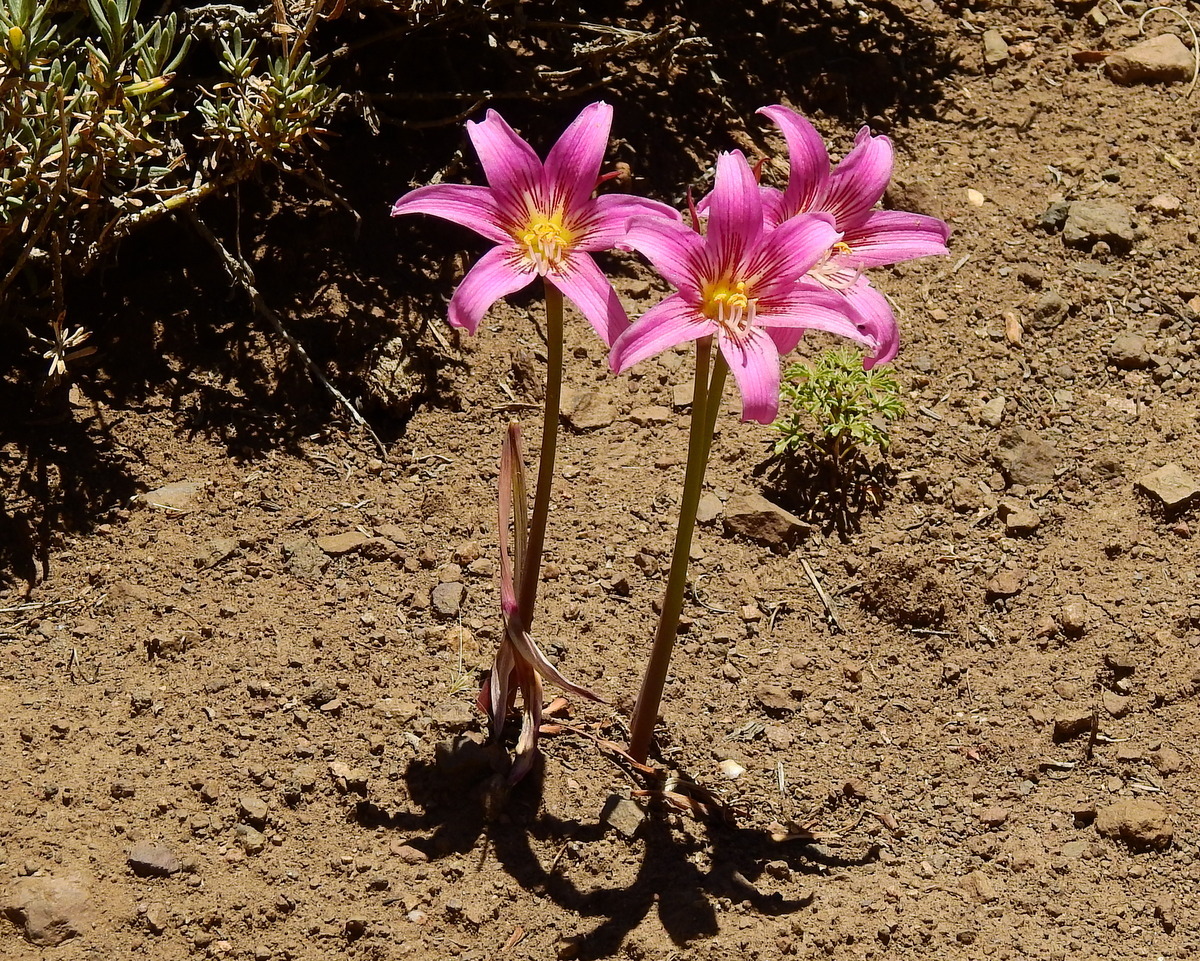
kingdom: Plantae
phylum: Tracheophyta
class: Liliopsida
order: Asparagales
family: Amaryllidaceae
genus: Rhodolirium
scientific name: Rhodolirium montanum
